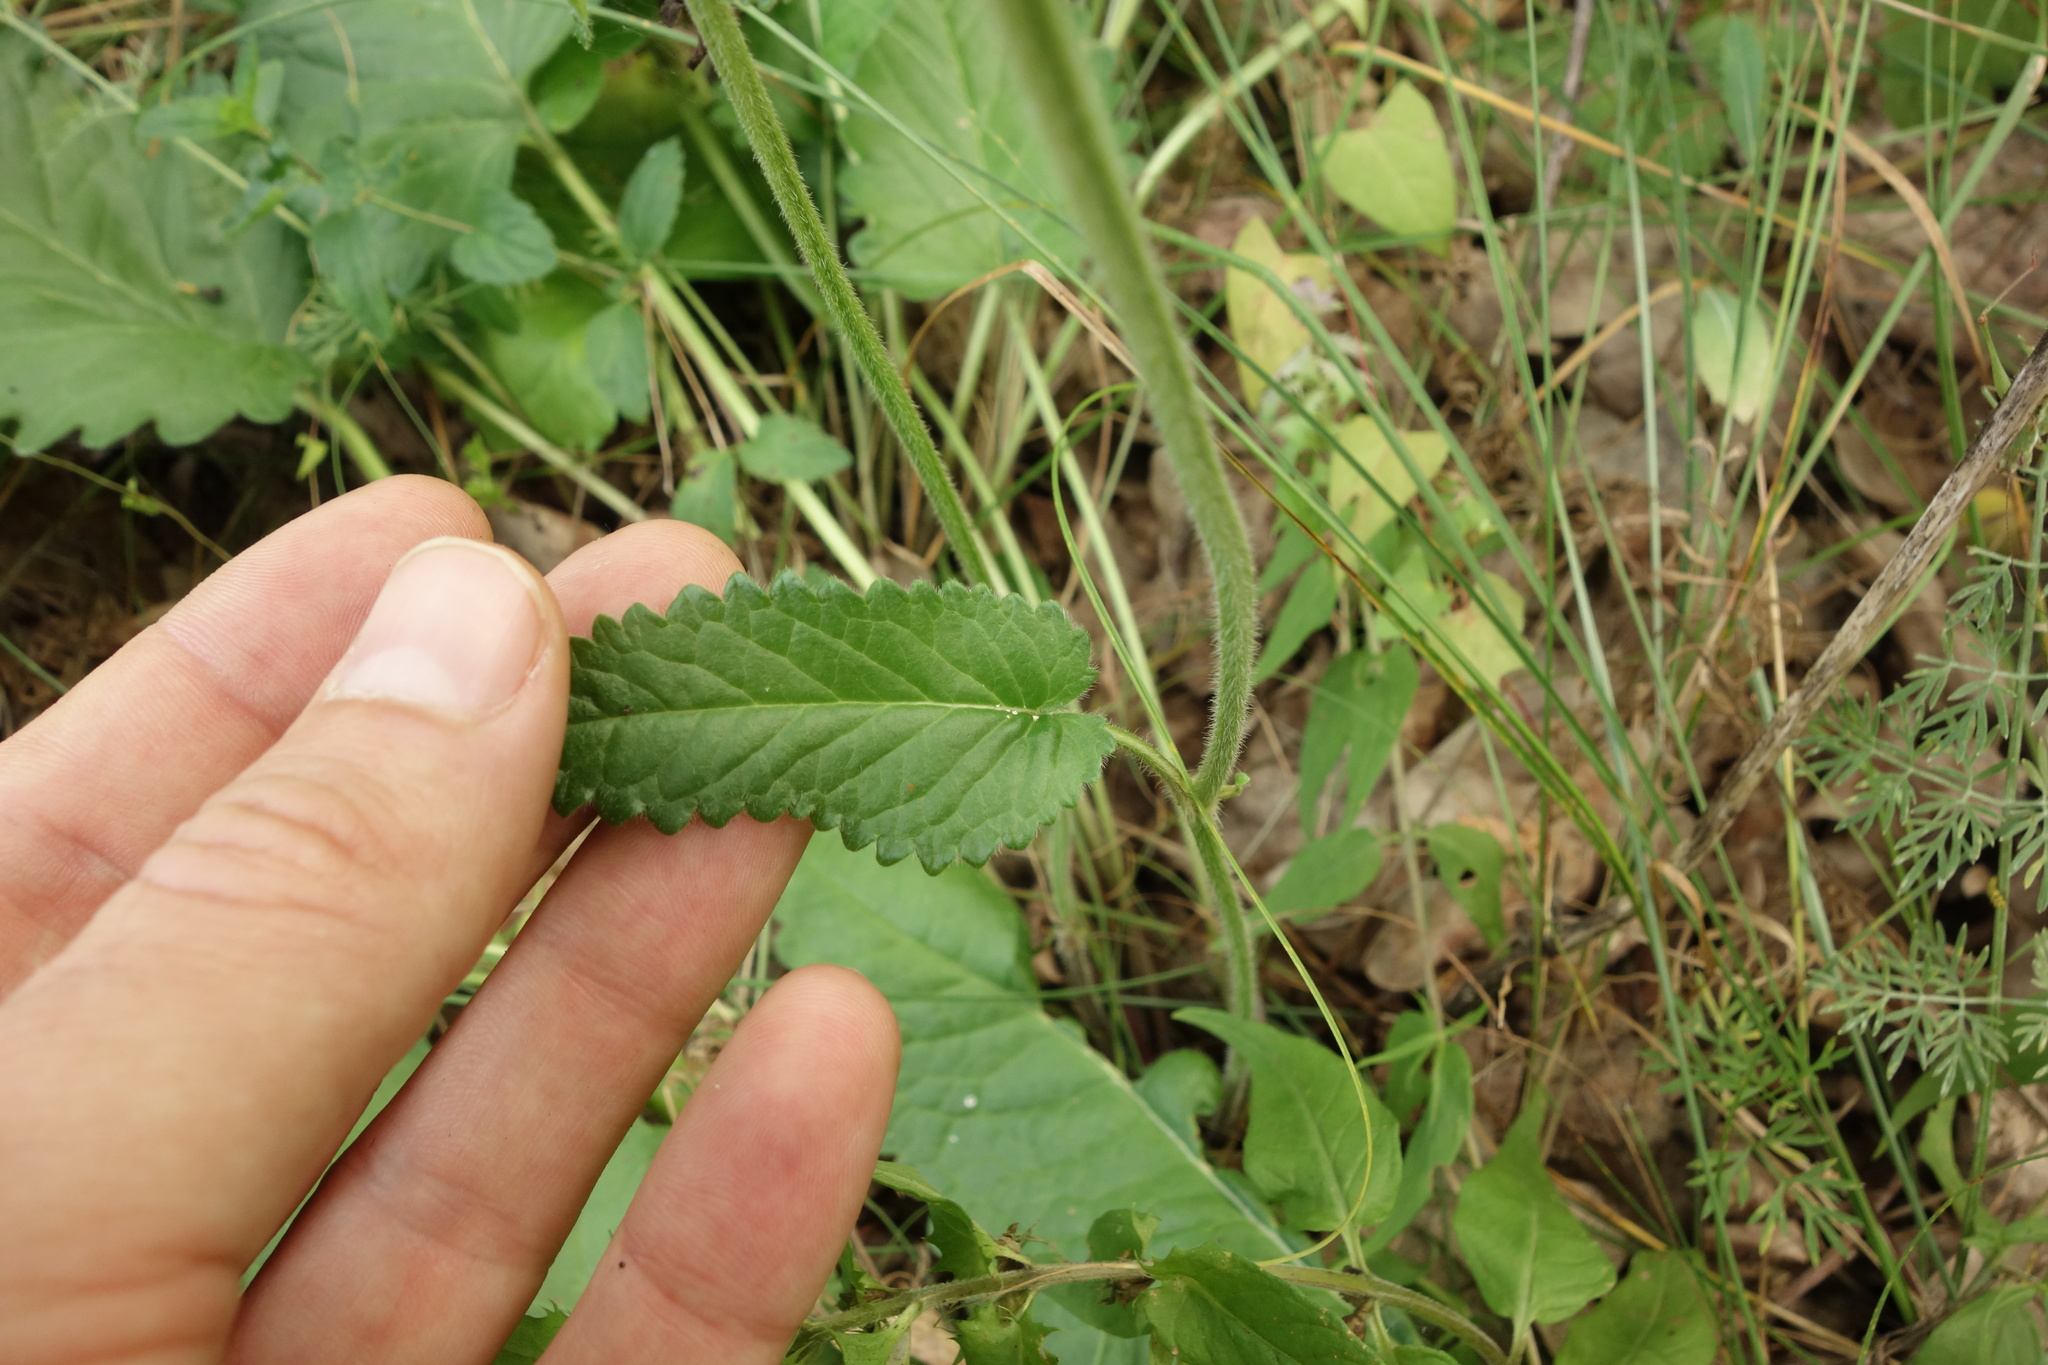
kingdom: Plantae
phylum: Tracheophyta
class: Magnoliopsida
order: Lamiales
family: Lamiaceae
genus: Betonica
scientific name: Betonica officinalis
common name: Bishop's-wort
